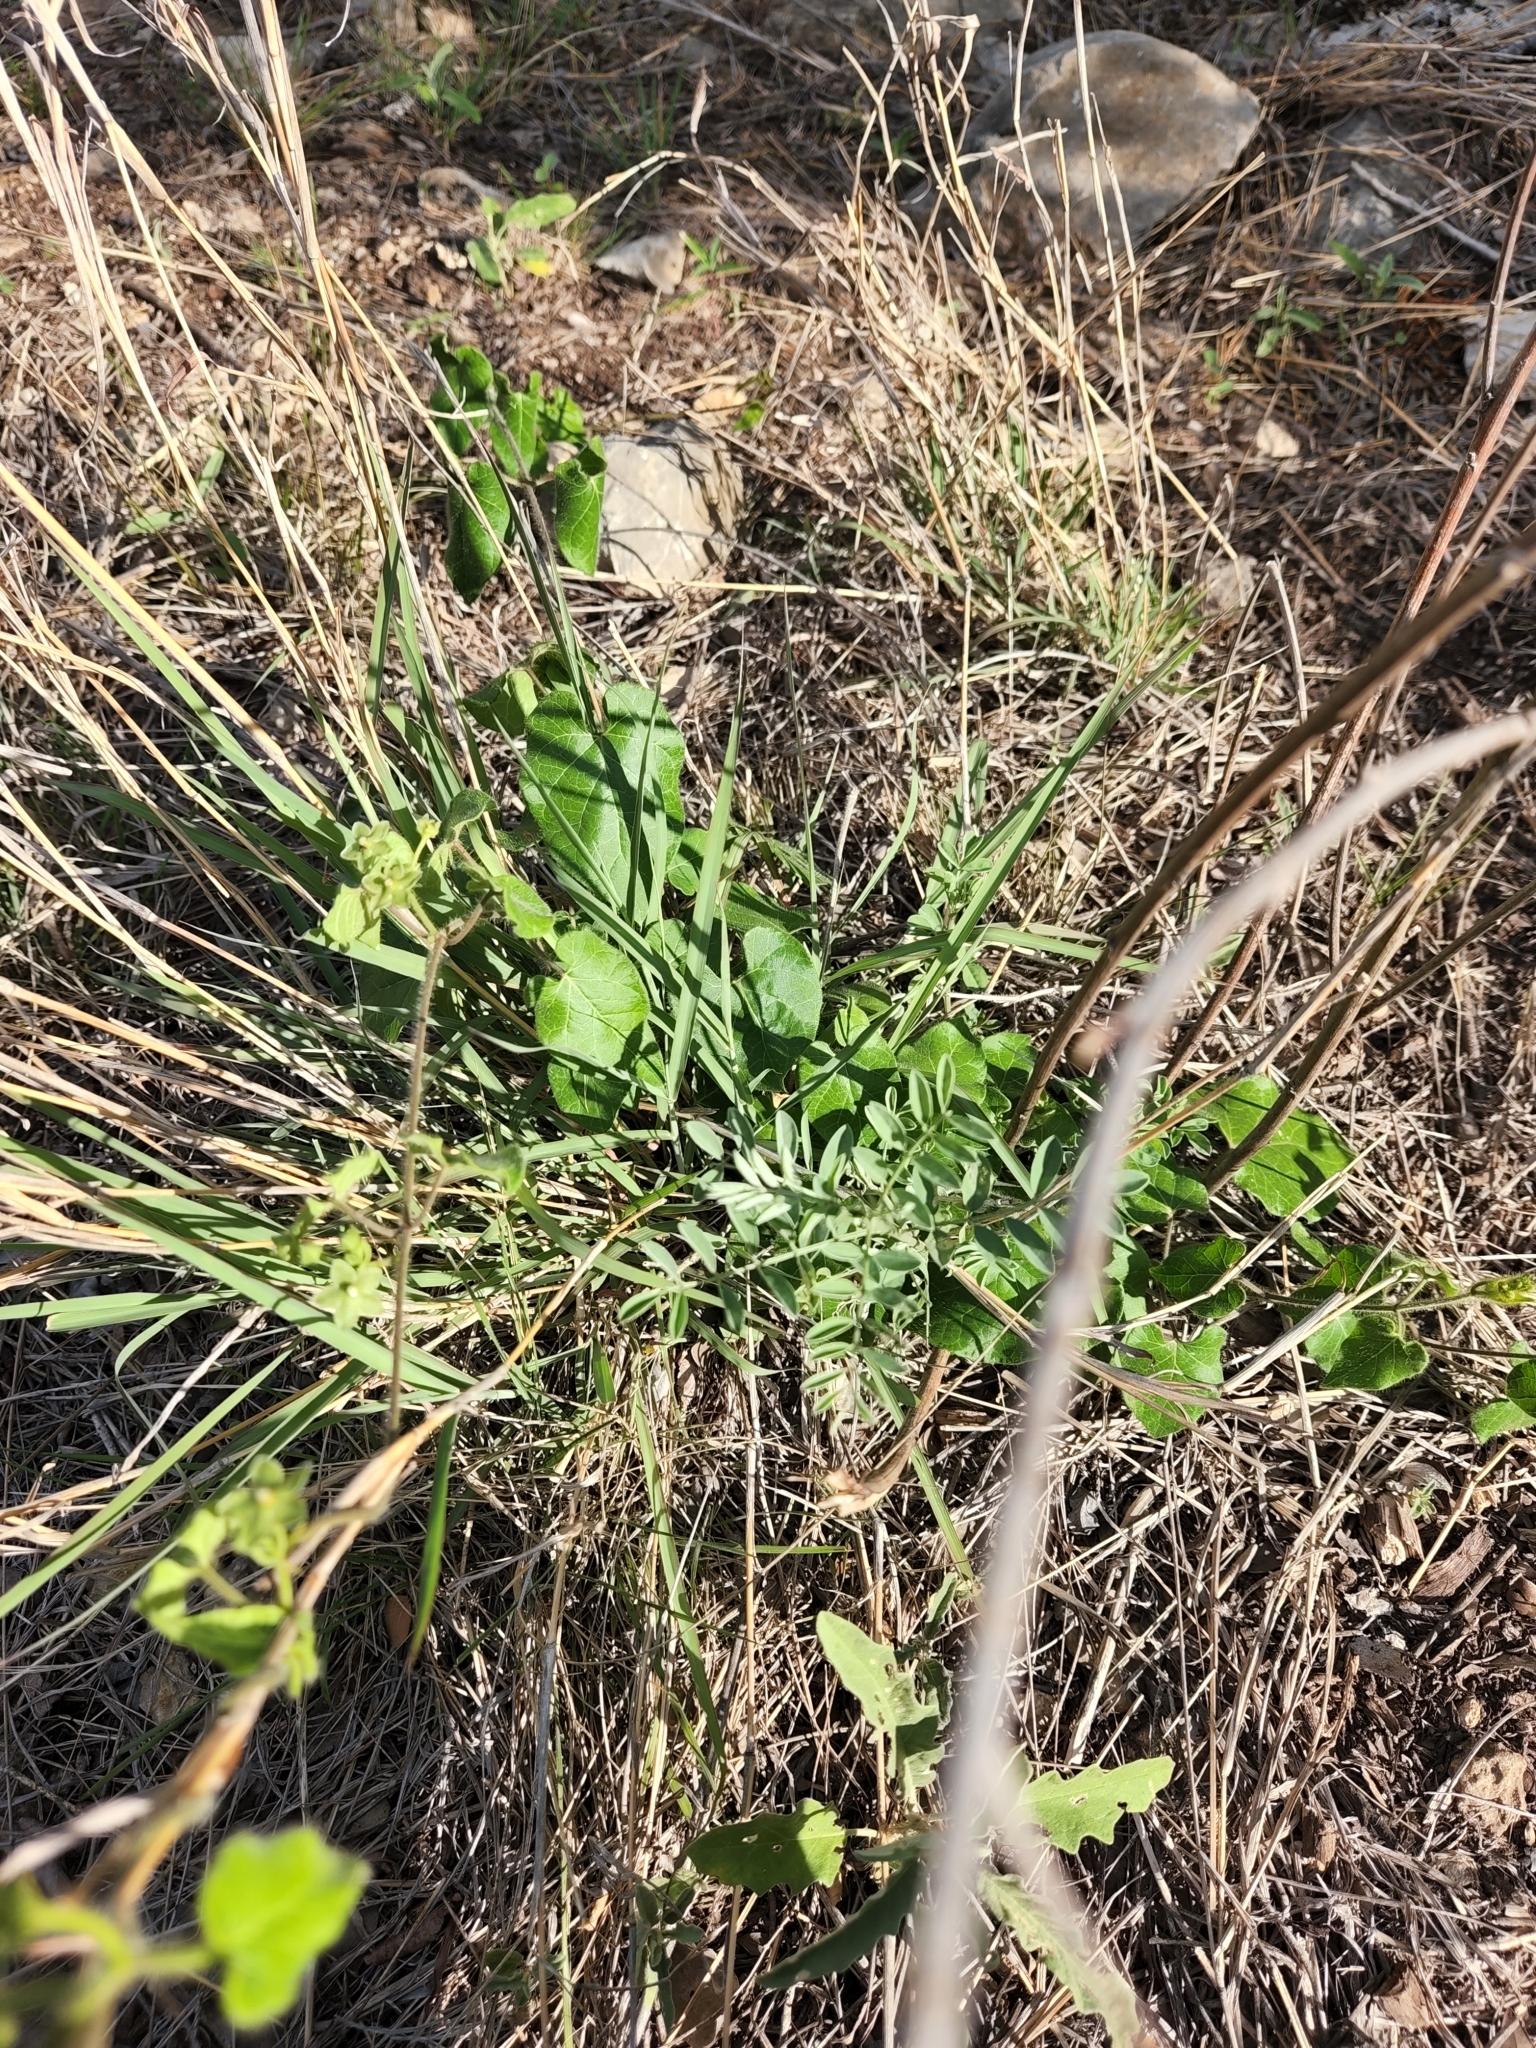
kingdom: Plantae
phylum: Tracheophyta
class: Magnoliopsida
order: Gentianales
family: Apocynaceae
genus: Dictyanthus
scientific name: Dictyanthus reticulatus
